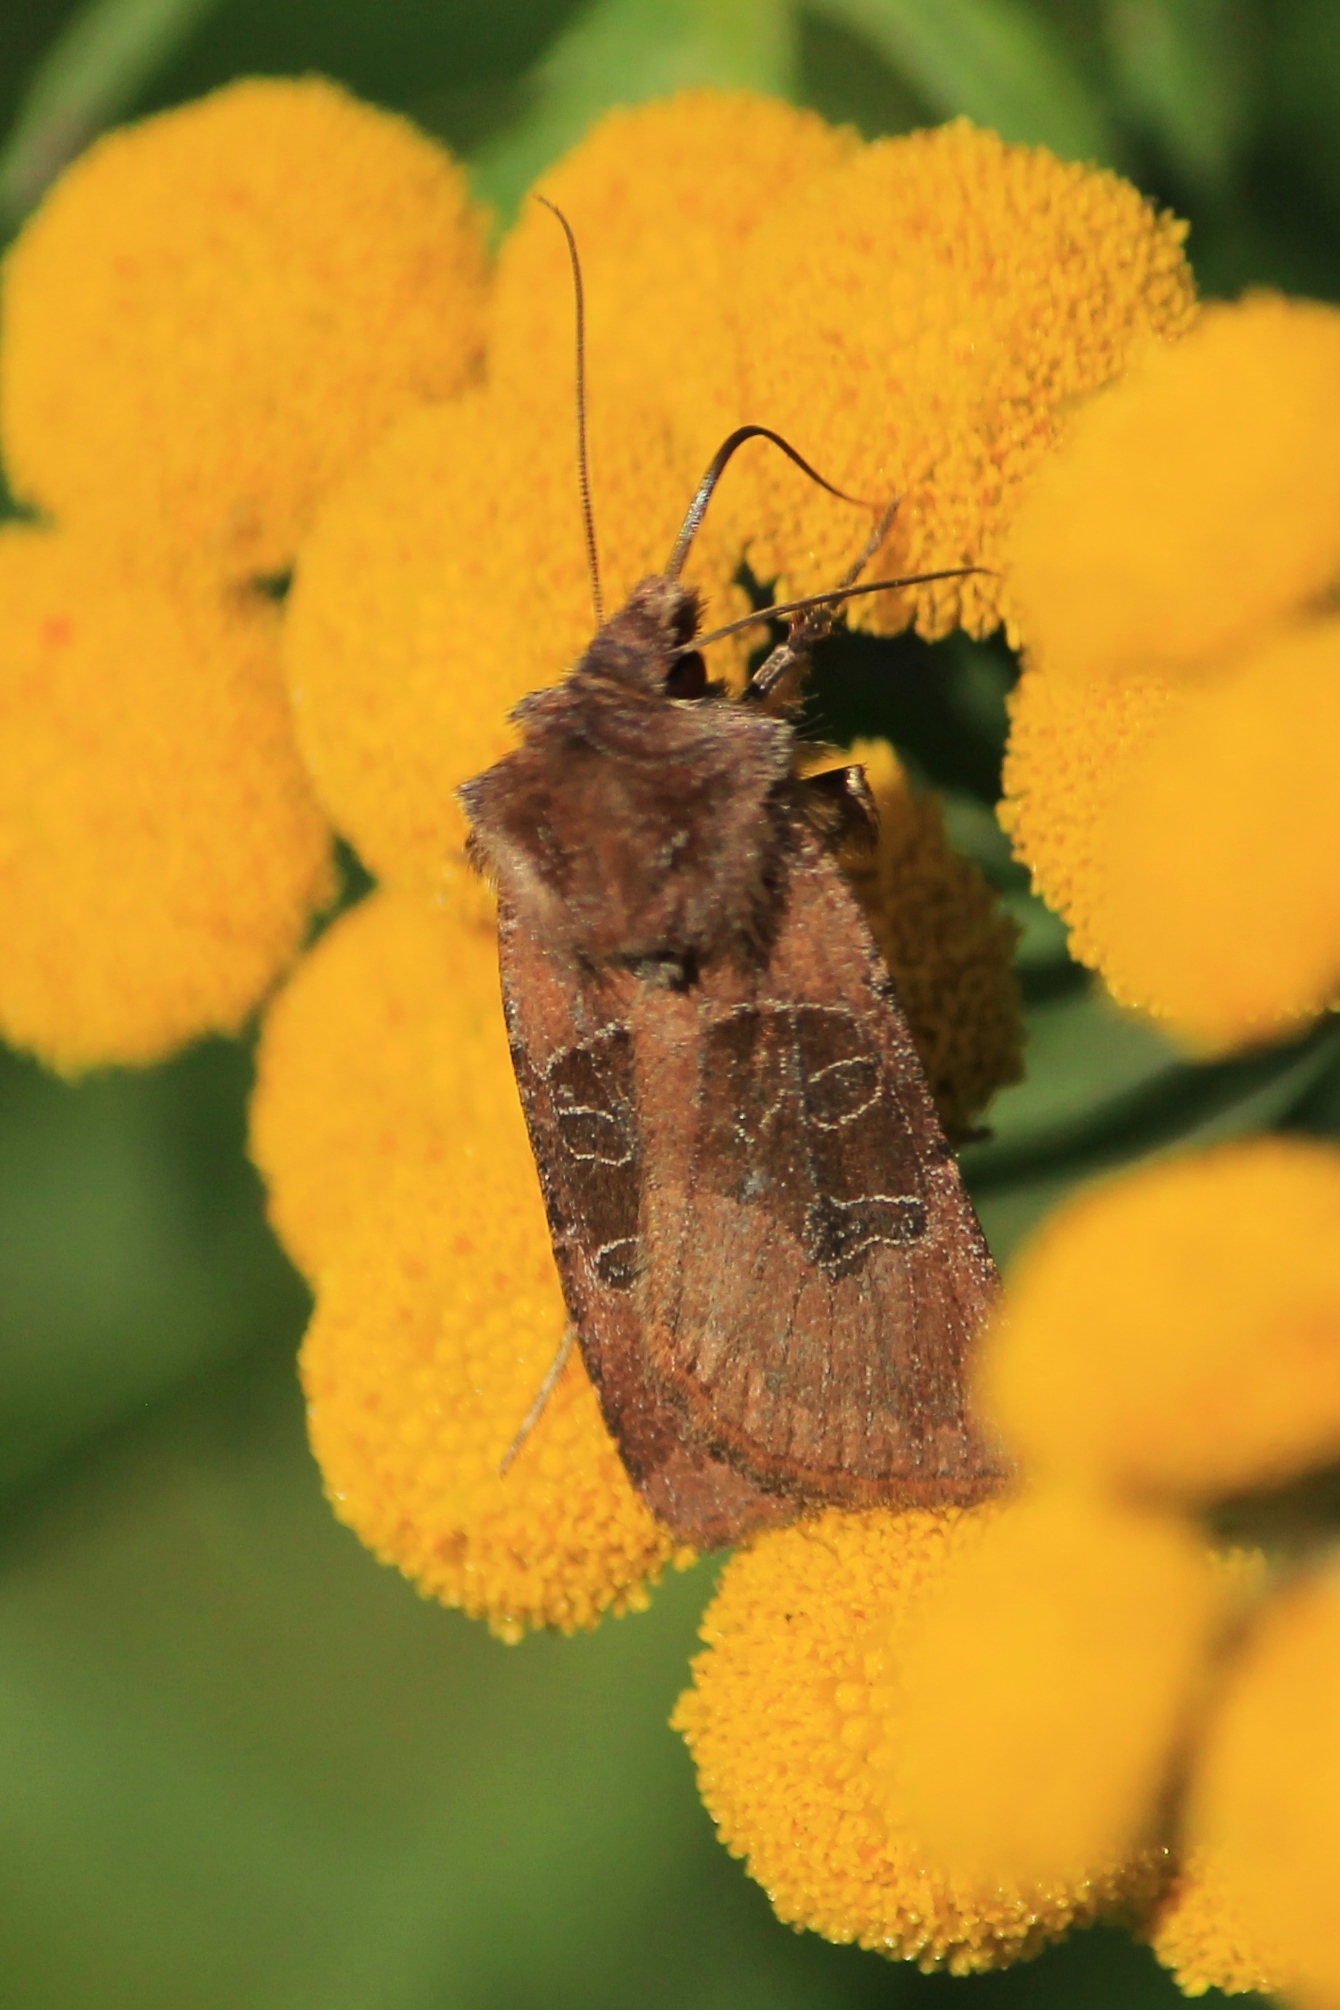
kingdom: Animalia
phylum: Arthropoda
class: Insecta
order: Lepidoptera
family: Noctuidae
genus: Chersotis
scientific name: Chersotis cuprea
